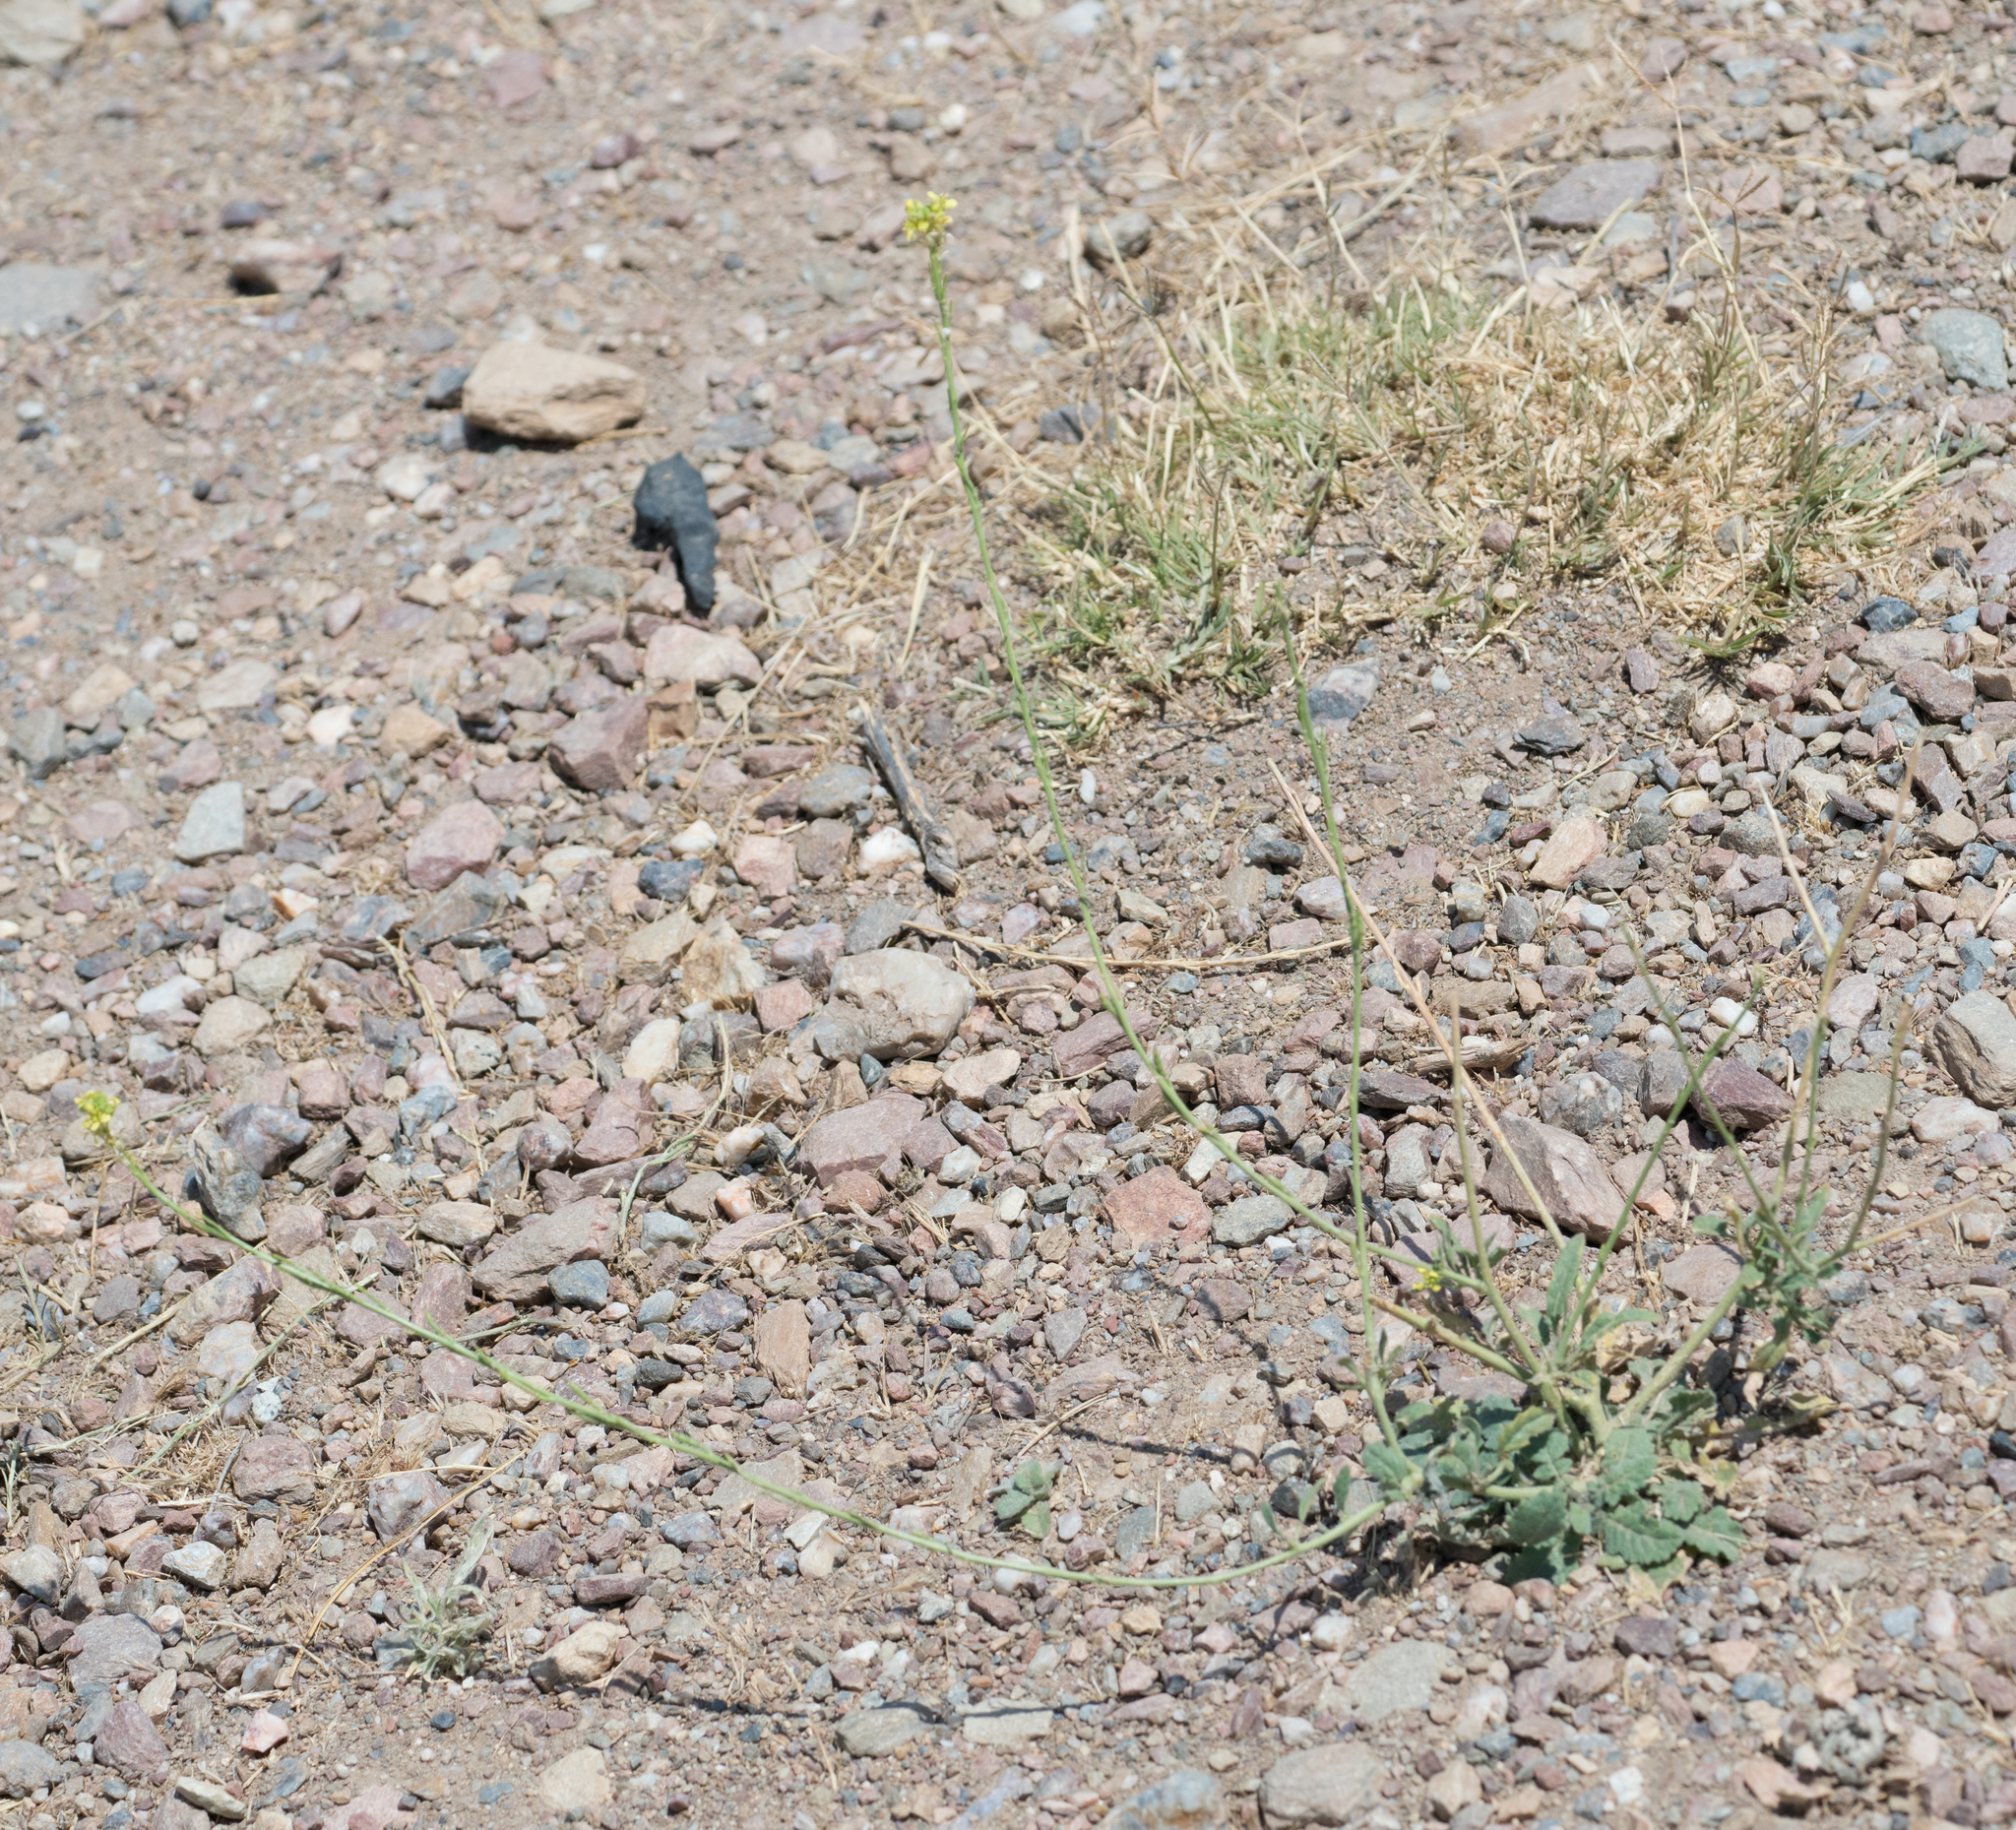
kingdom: Plantae
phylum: Tracheophyta
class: Magnoliopsida
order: Brassicales
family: Brassicaceae
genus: Hirschfeldia
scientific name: Hirschfeldia incana
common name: Hoary mustard
